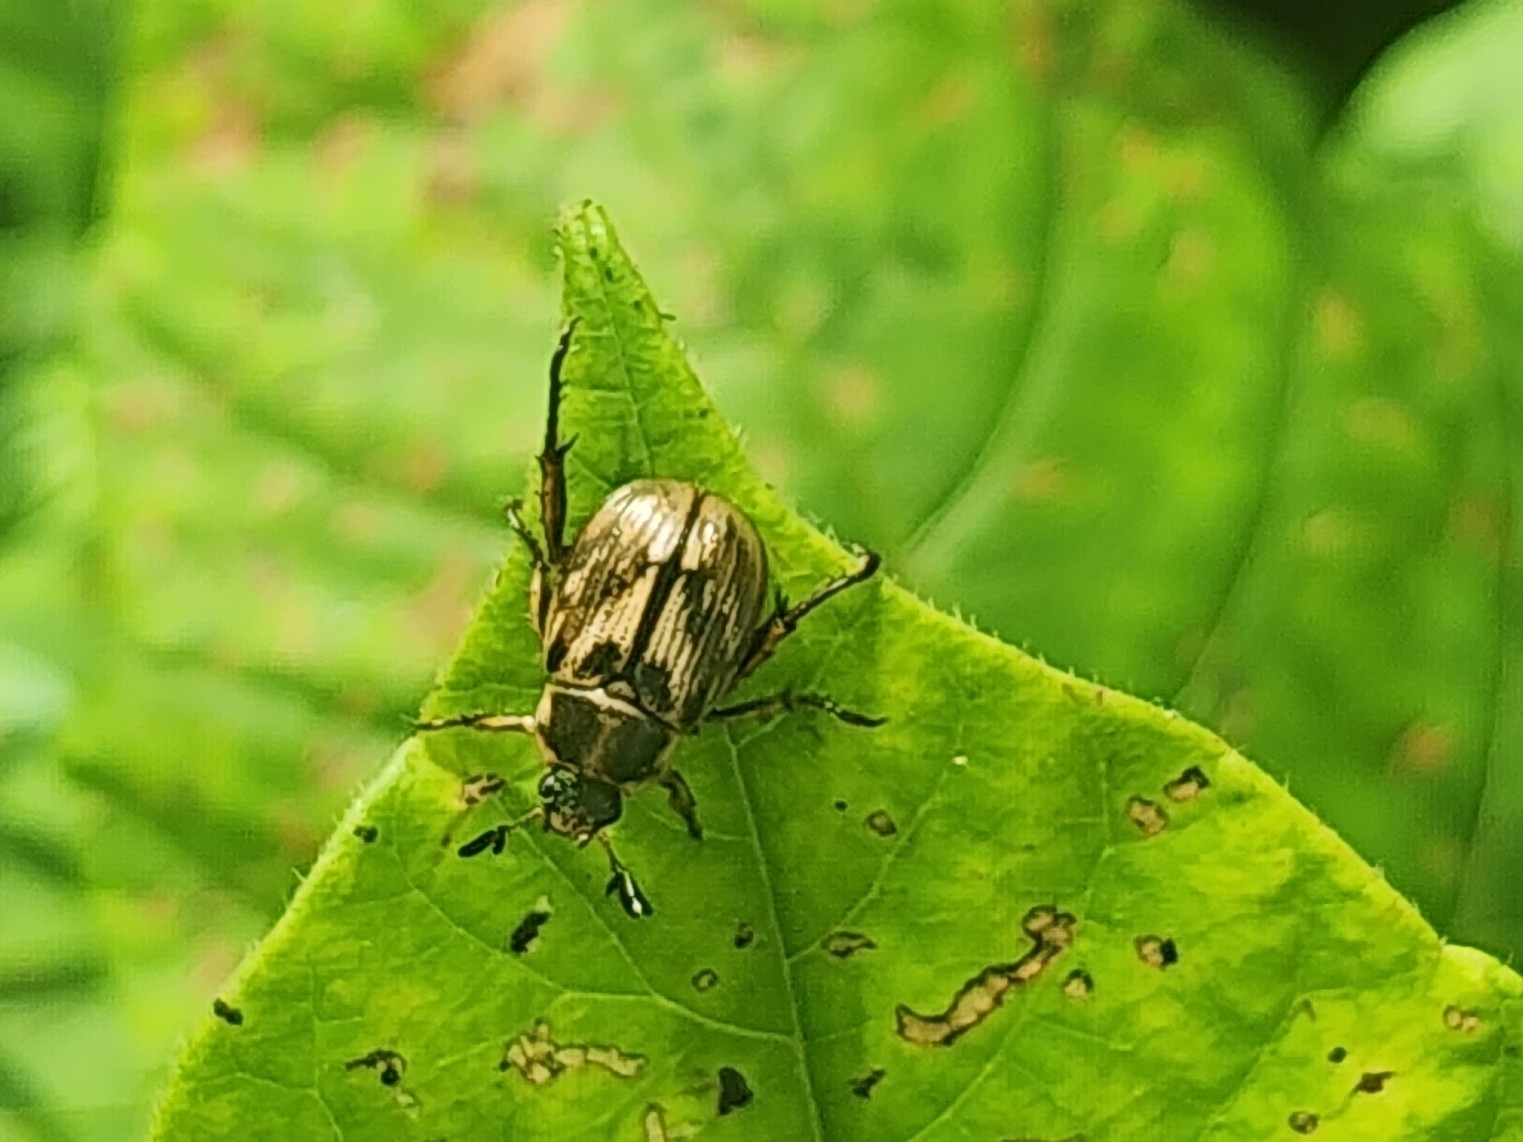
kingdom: Animalia
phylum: Arthropoda
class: Insecta
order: Coleoptera
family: Scarabaeidae
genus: Exomala
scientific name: Exomala orientalis
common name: Oriental beetle
